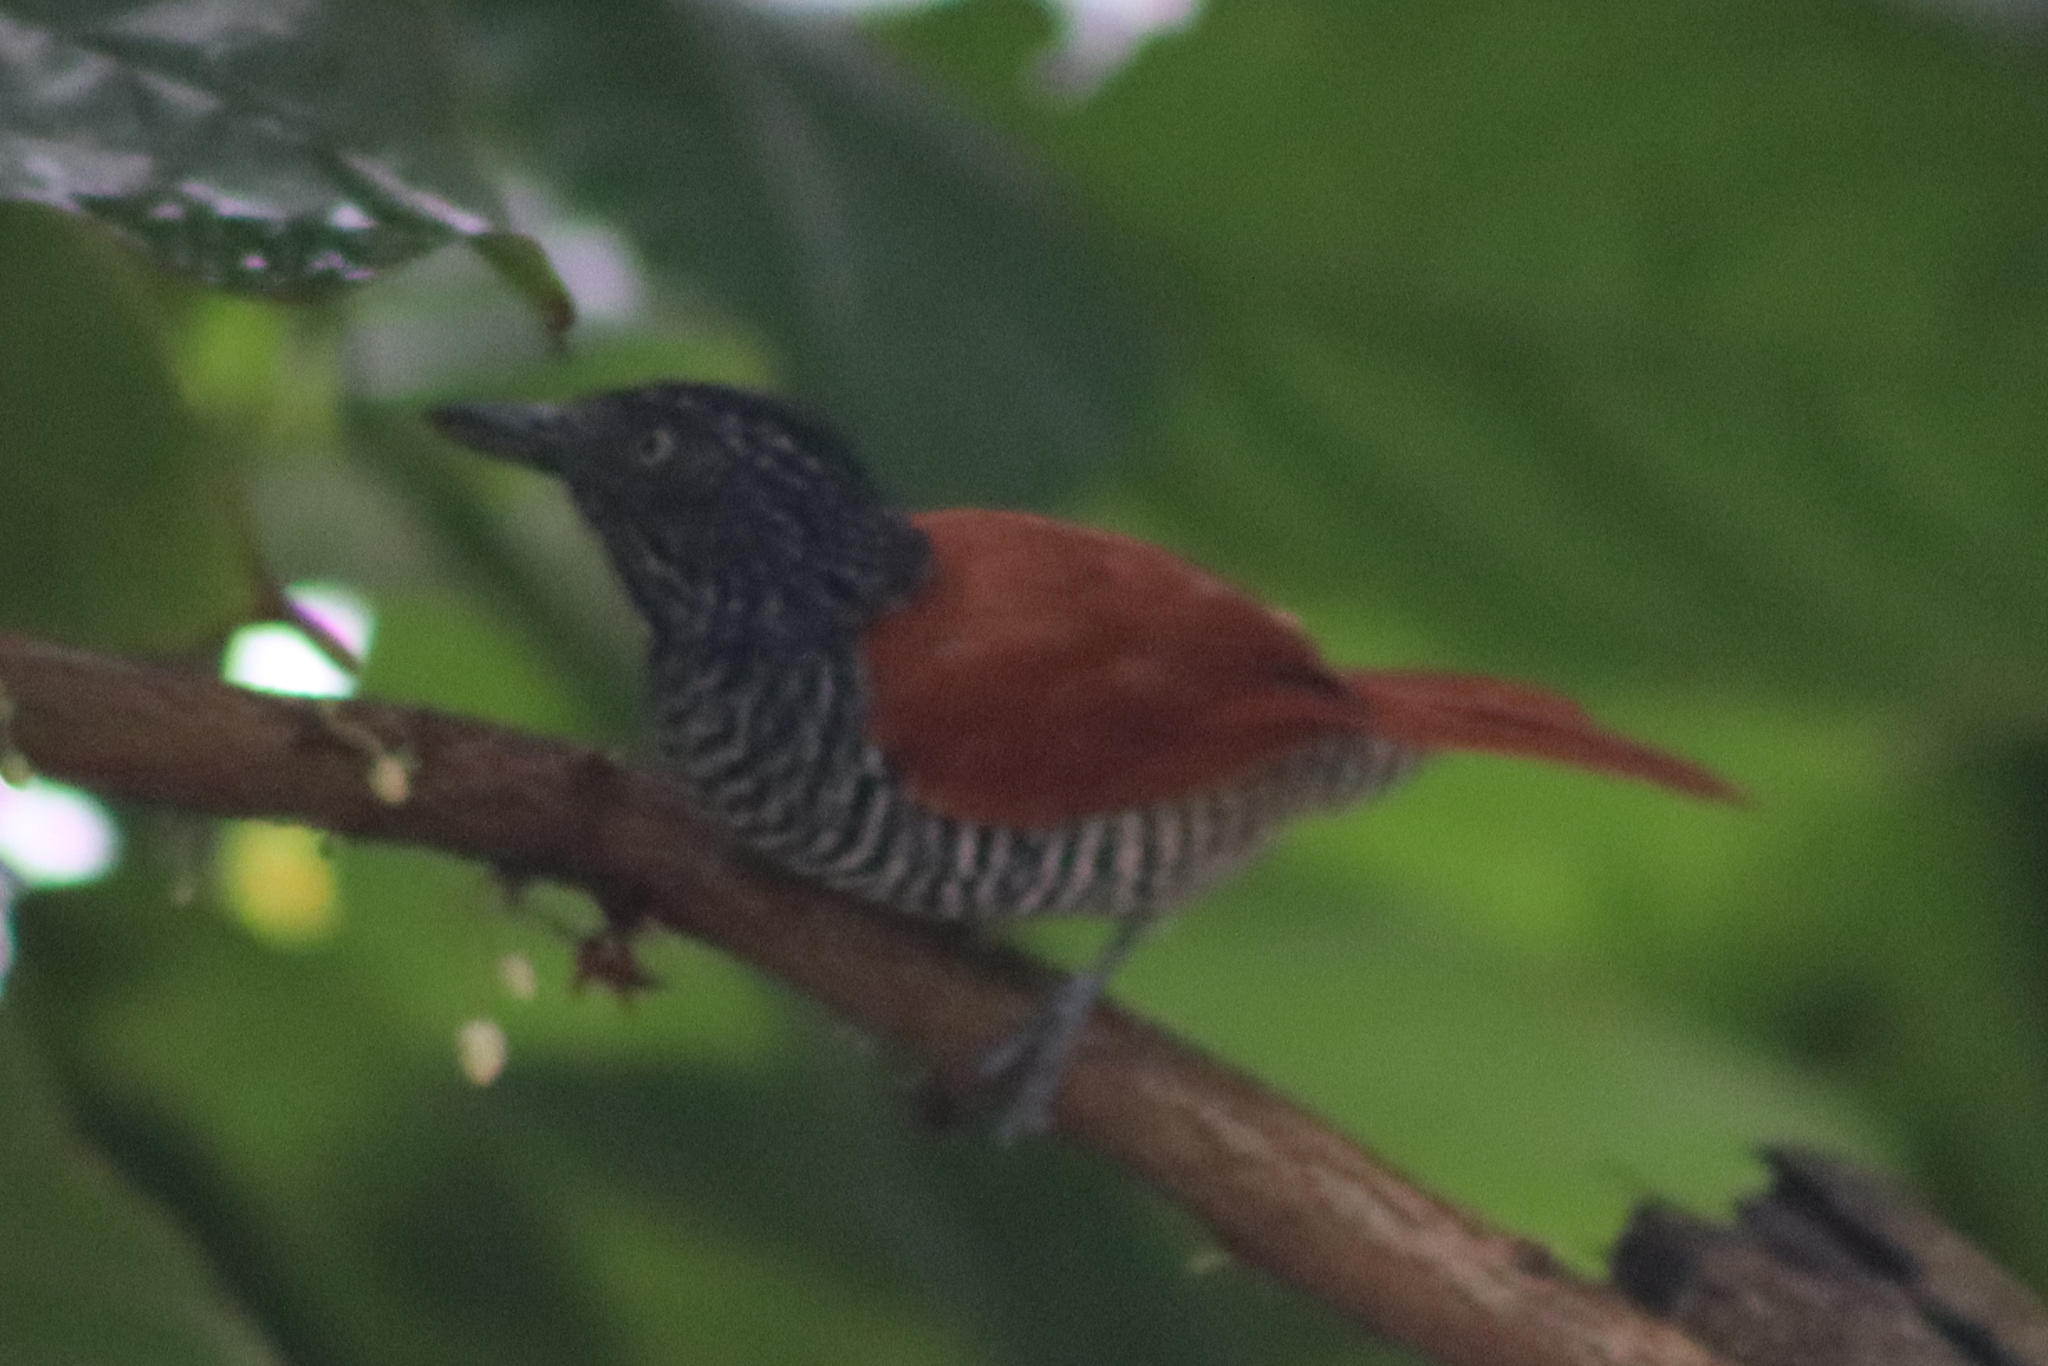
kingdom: Animalia
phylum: Chordata
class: Aves
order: Passeriformes
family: Thamnophilidae
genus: Thamnophilus
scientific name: Thamnophilus palliatus
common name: Chestnut-backed antshrike
